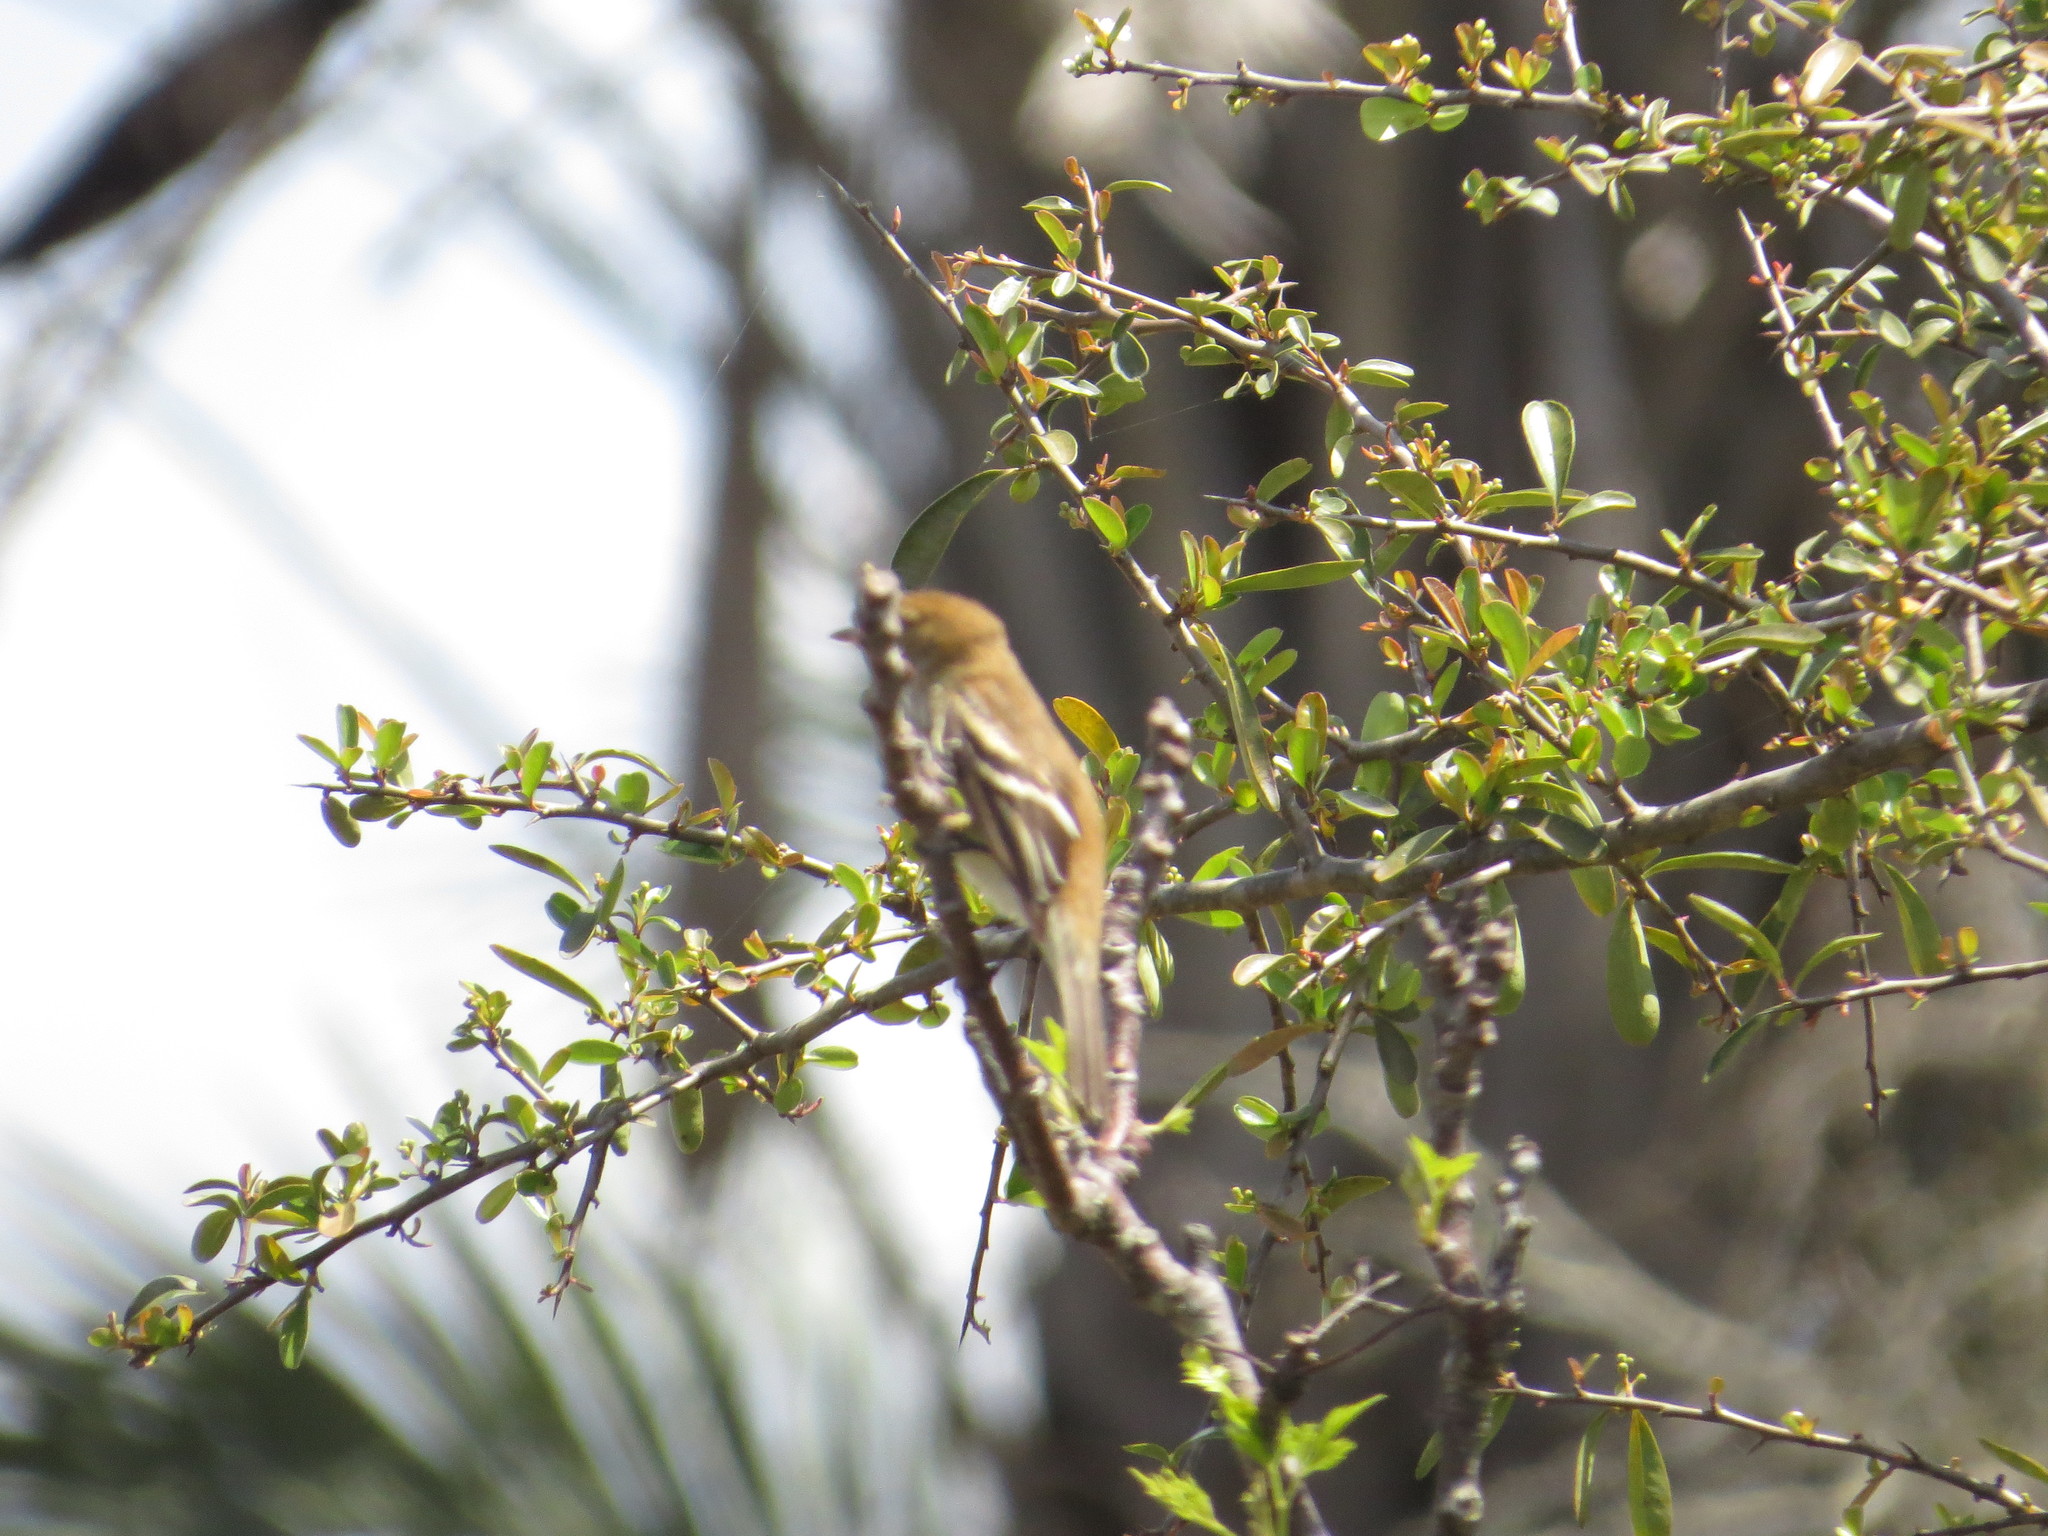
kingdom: Animalia
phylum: Chordata
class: Aves
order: Passeriformes
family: Tyrannidae
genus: Myiophobus
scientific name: Myiophobus fasciatus
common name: Bran-colored flycatcher
